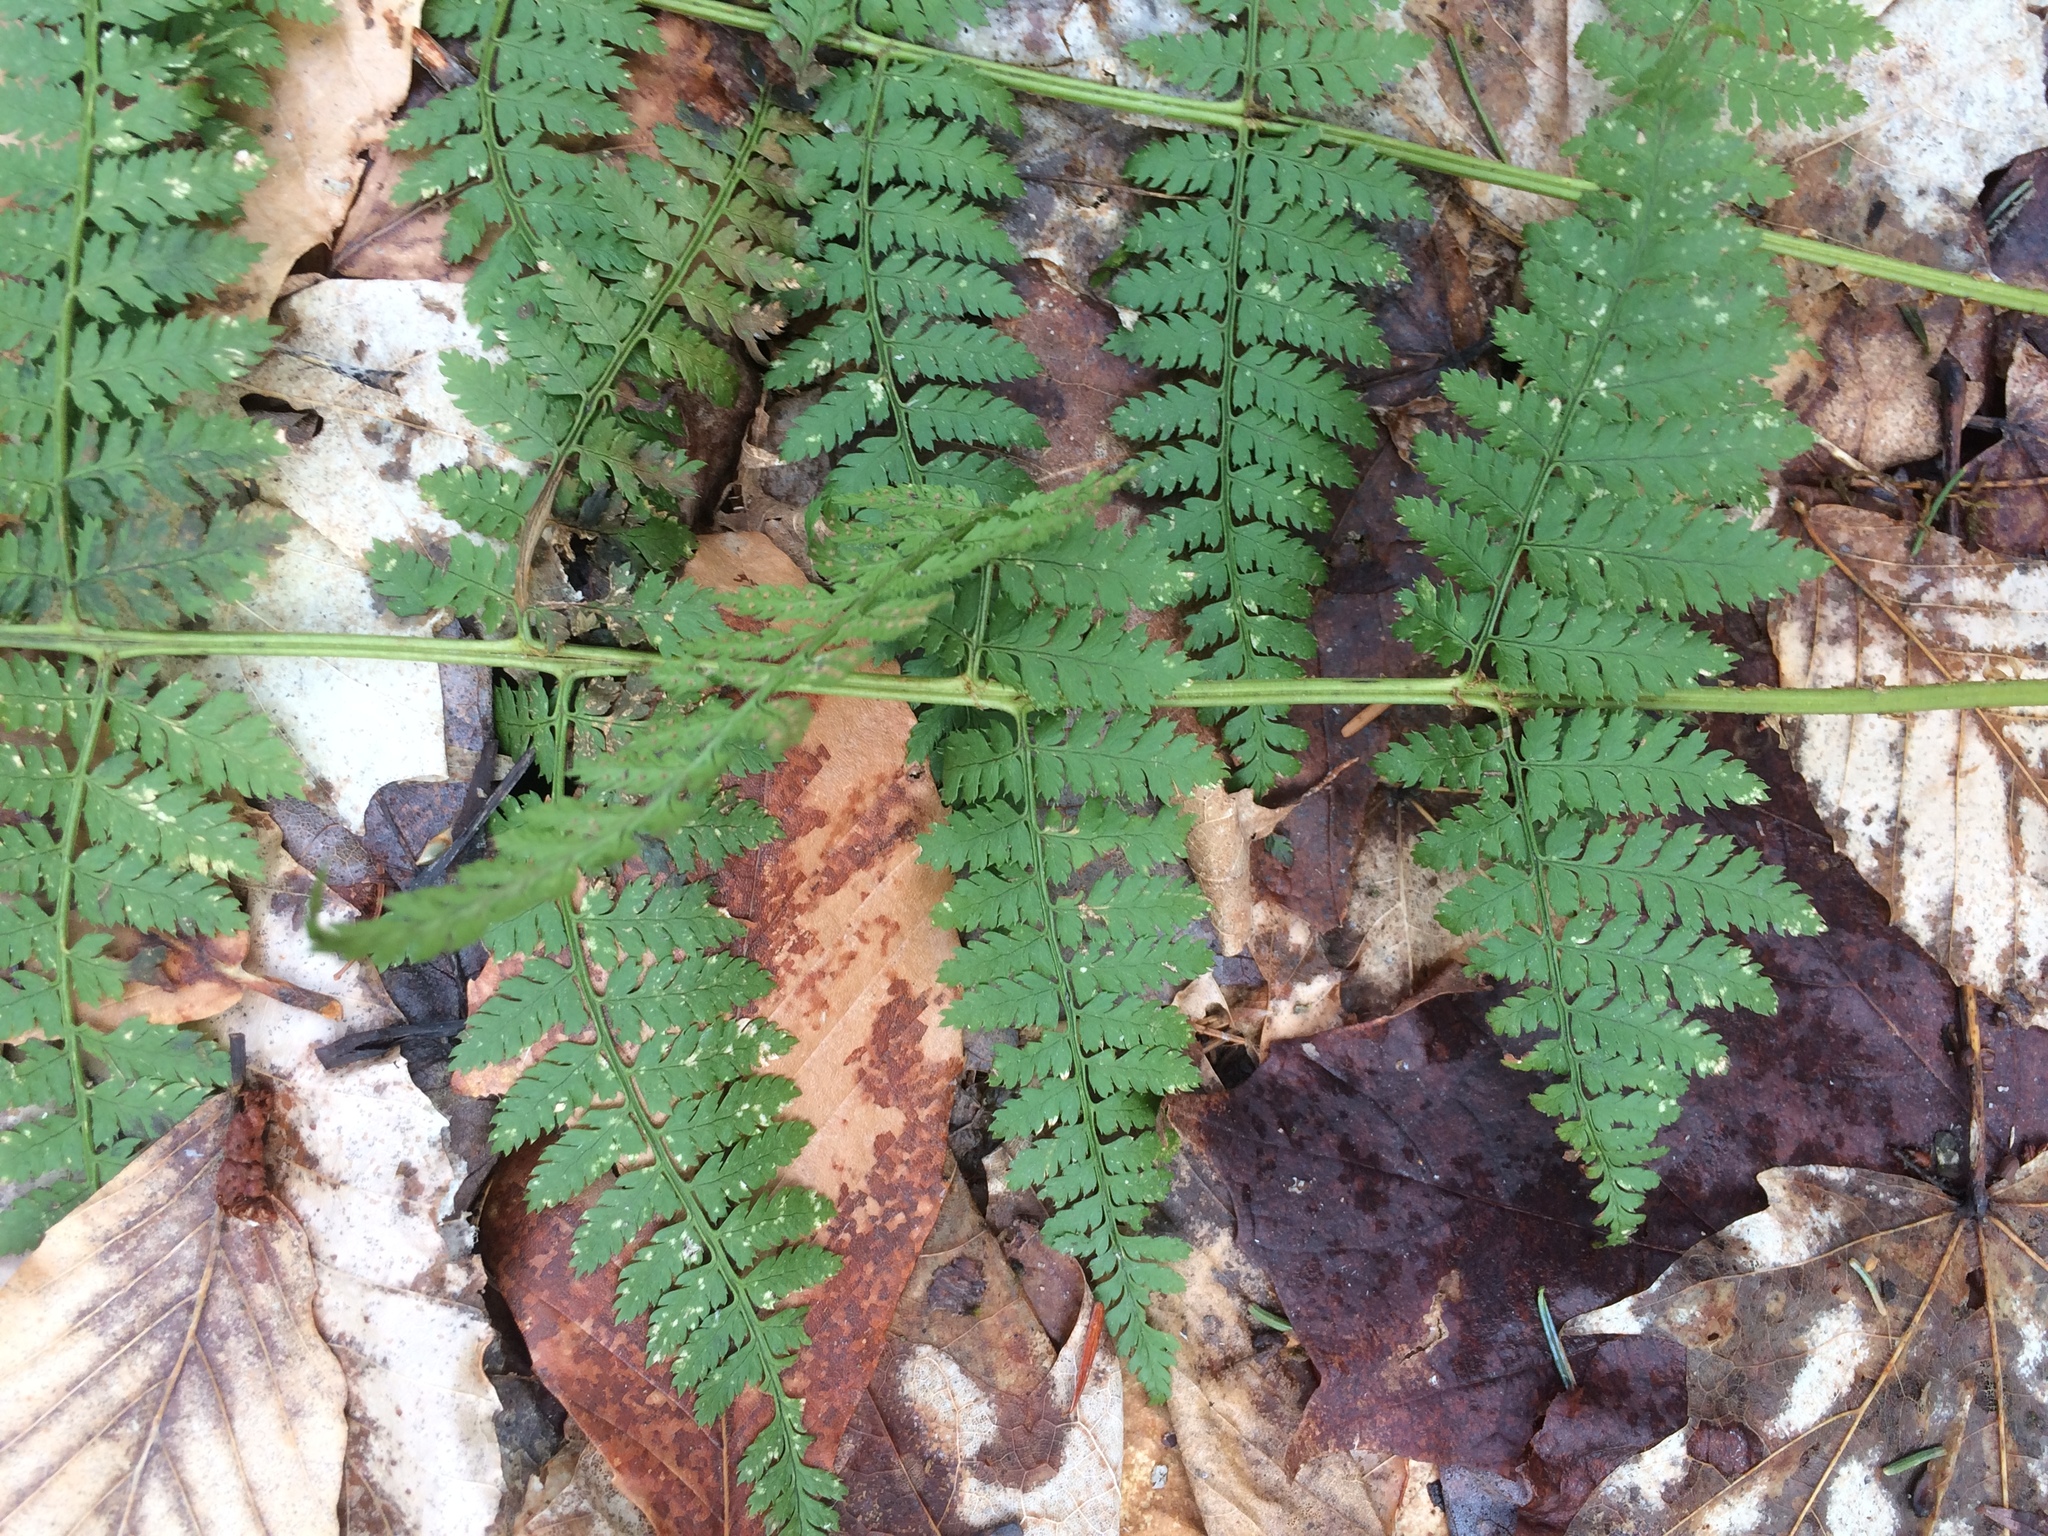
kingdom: Plantae
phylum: Tracheophyta
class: Polypodiopsida
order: Polypodiales
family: Dryopteridaceae
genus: Dryopteris
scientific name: Dryopteris intermedia
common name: Evergreen wood fern
